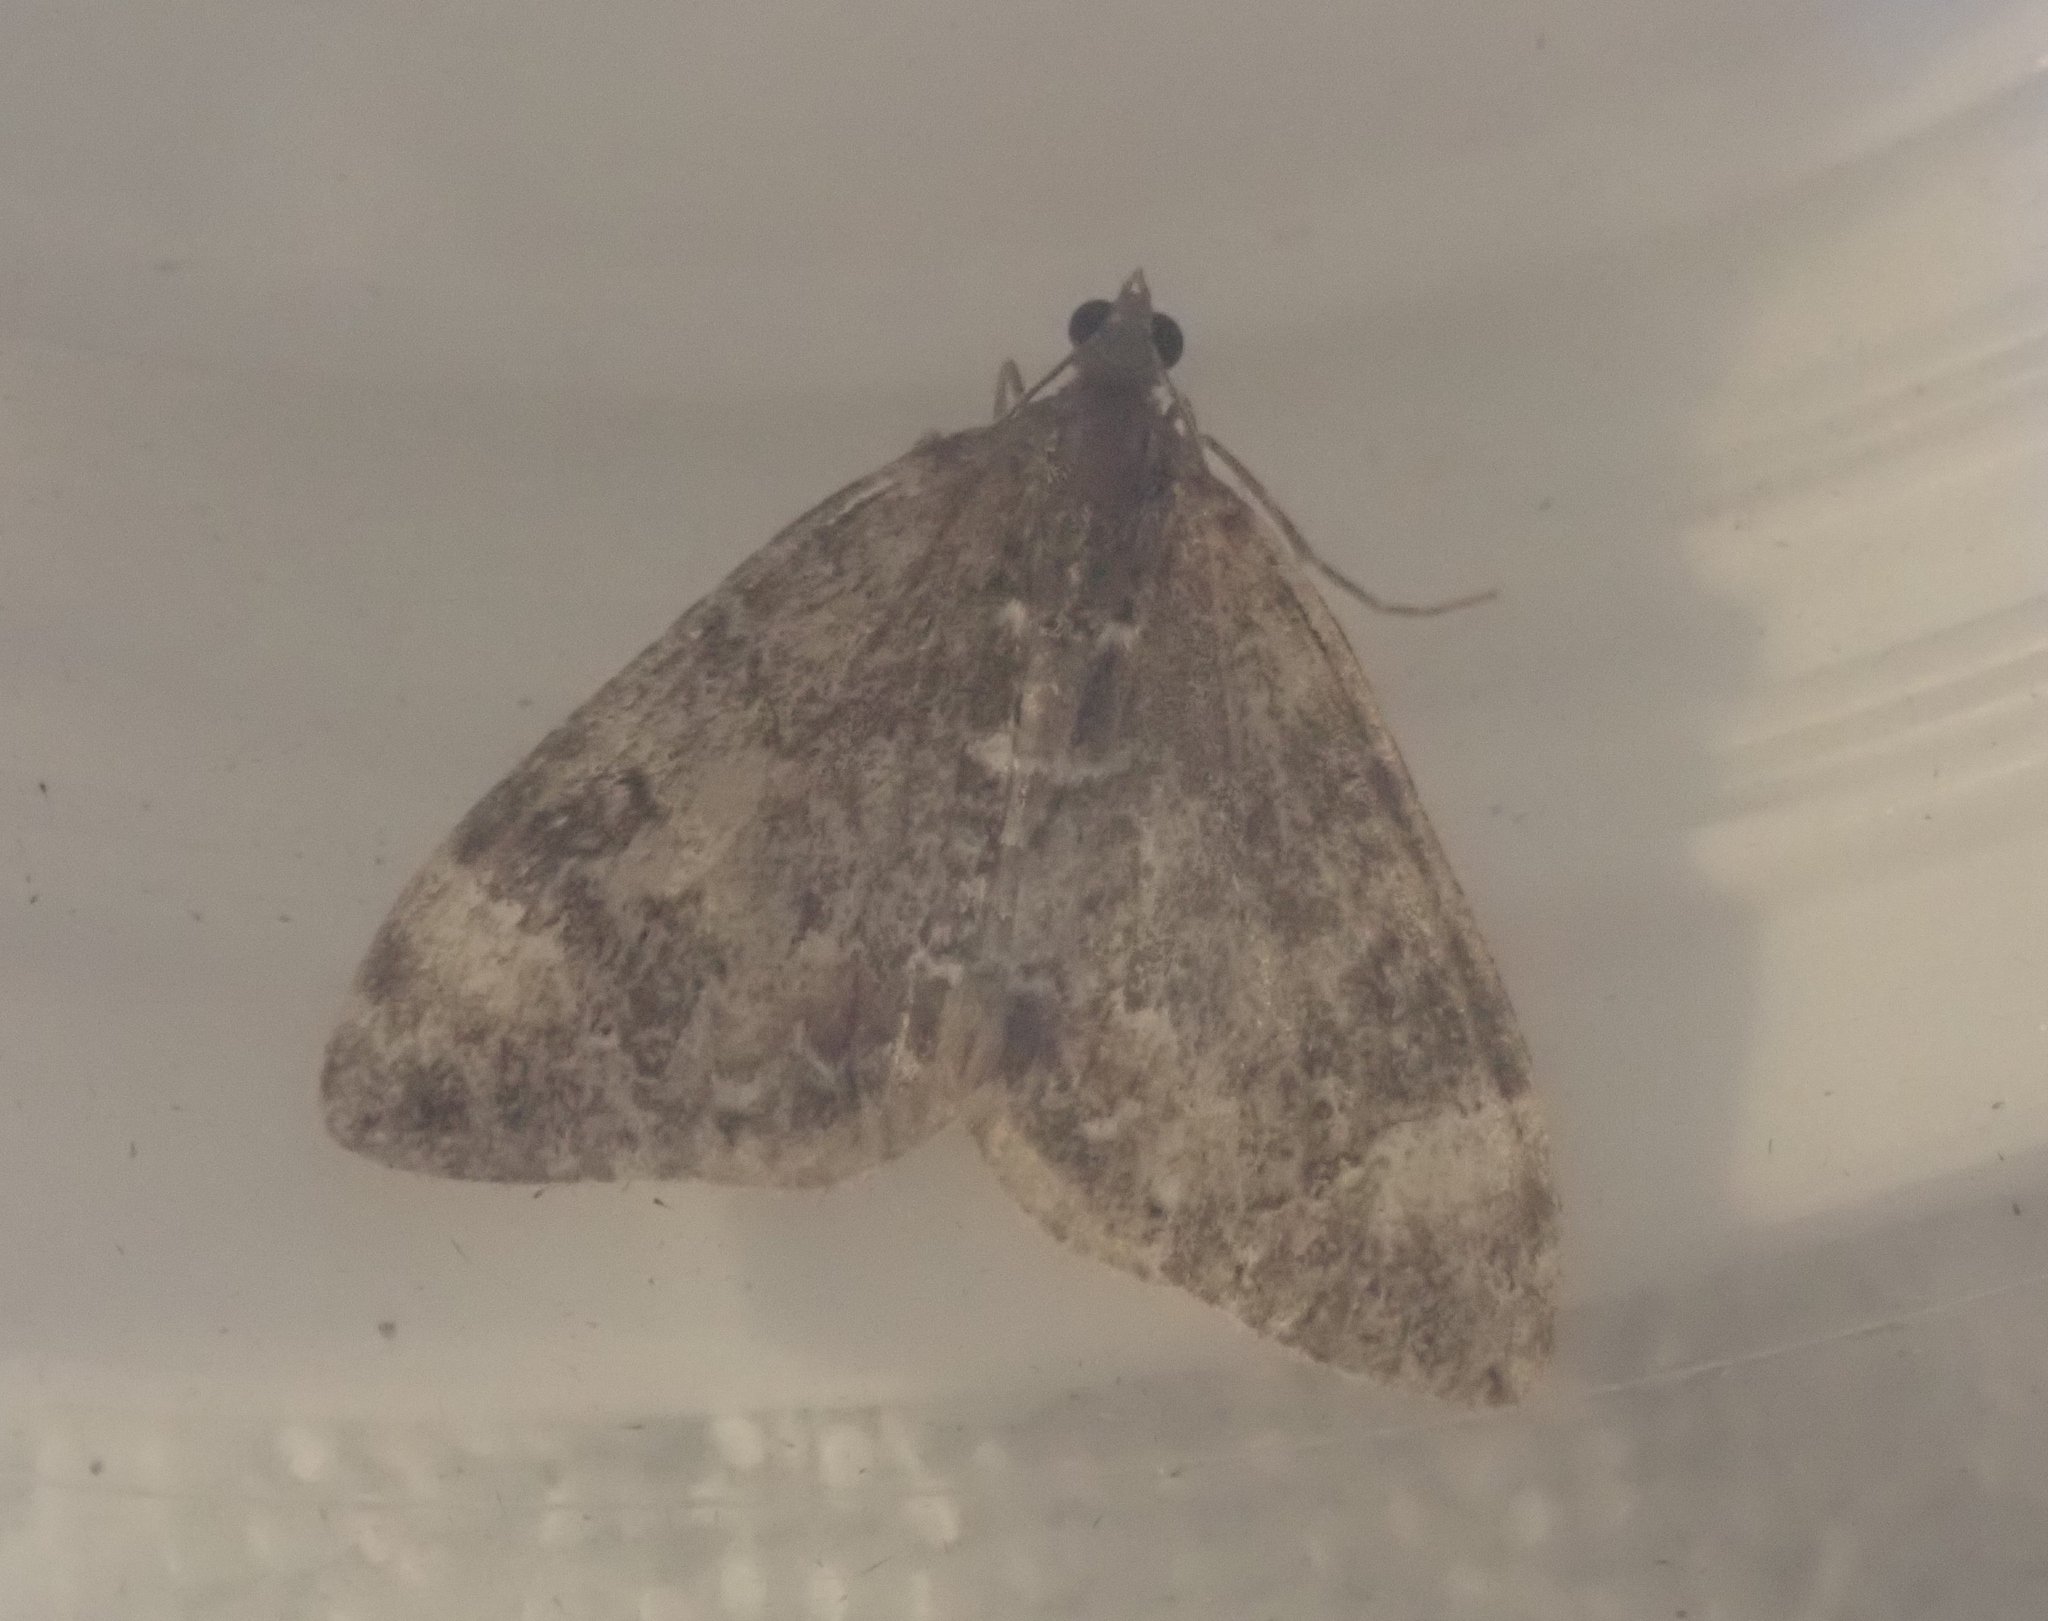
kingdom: Animalia
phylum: Arthropoda
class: Insecta
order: Lepidoptera
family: Geometridae
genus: Dysstroma
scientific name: Dysstroma truncata
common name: Common marbled carpet
